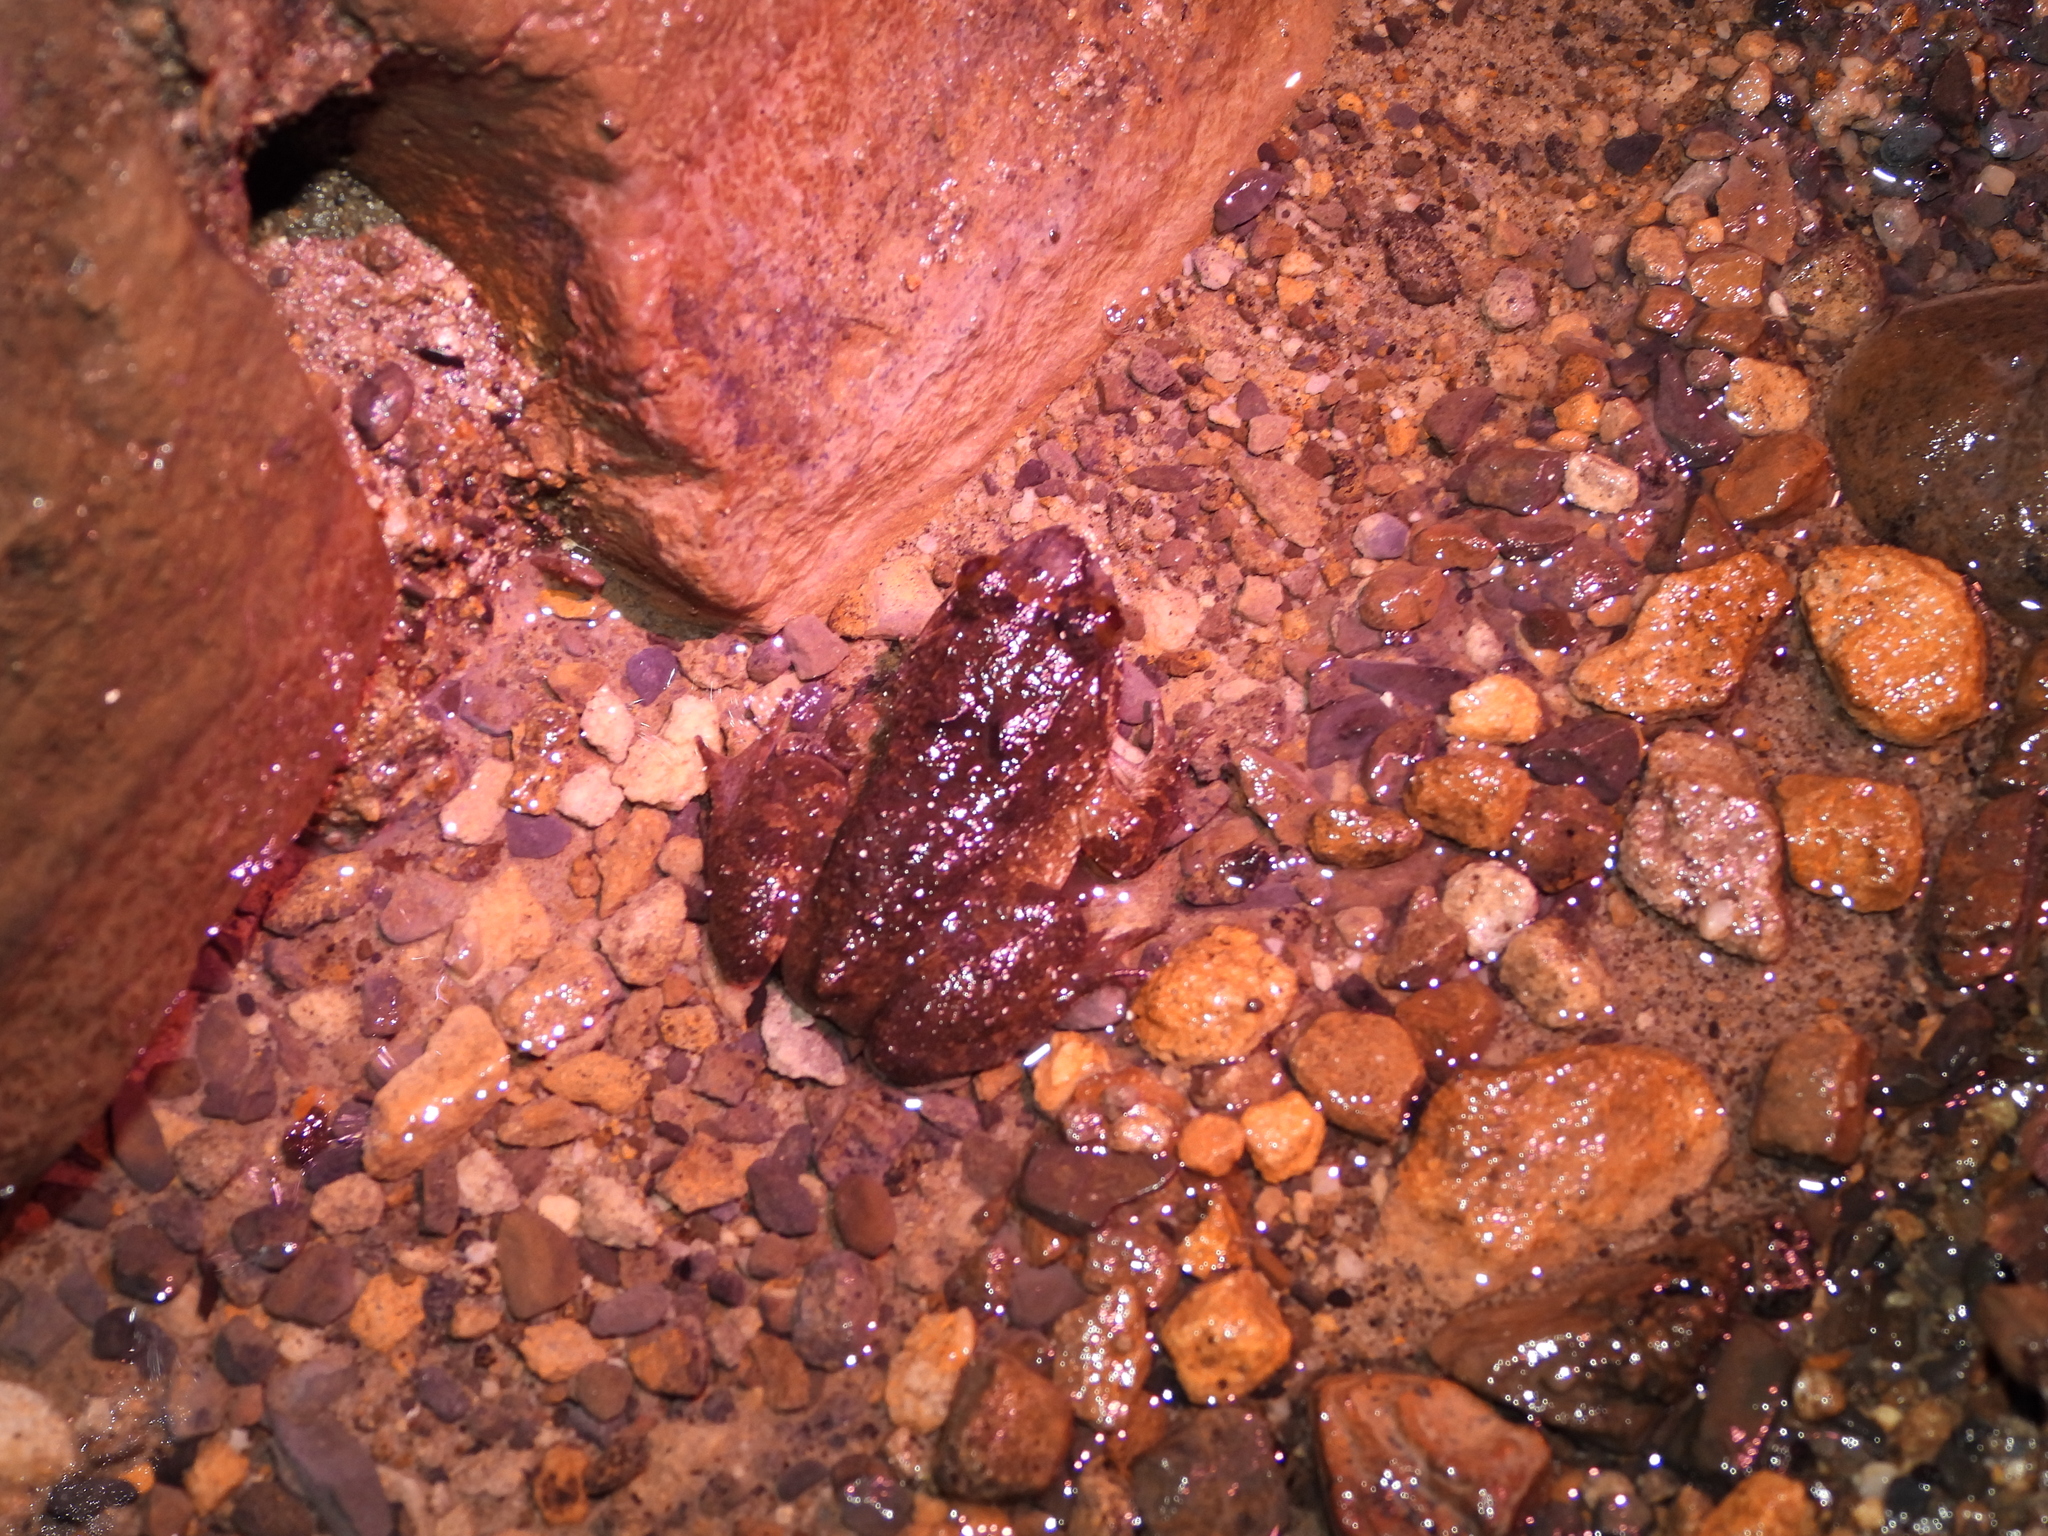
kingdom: Animalia
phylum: Chordata
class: Amphibia
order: Anura
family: Dicroglossidae
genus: Limnonectes
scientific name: Limnonectes fujianensis
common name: Fujian large-headed frog
